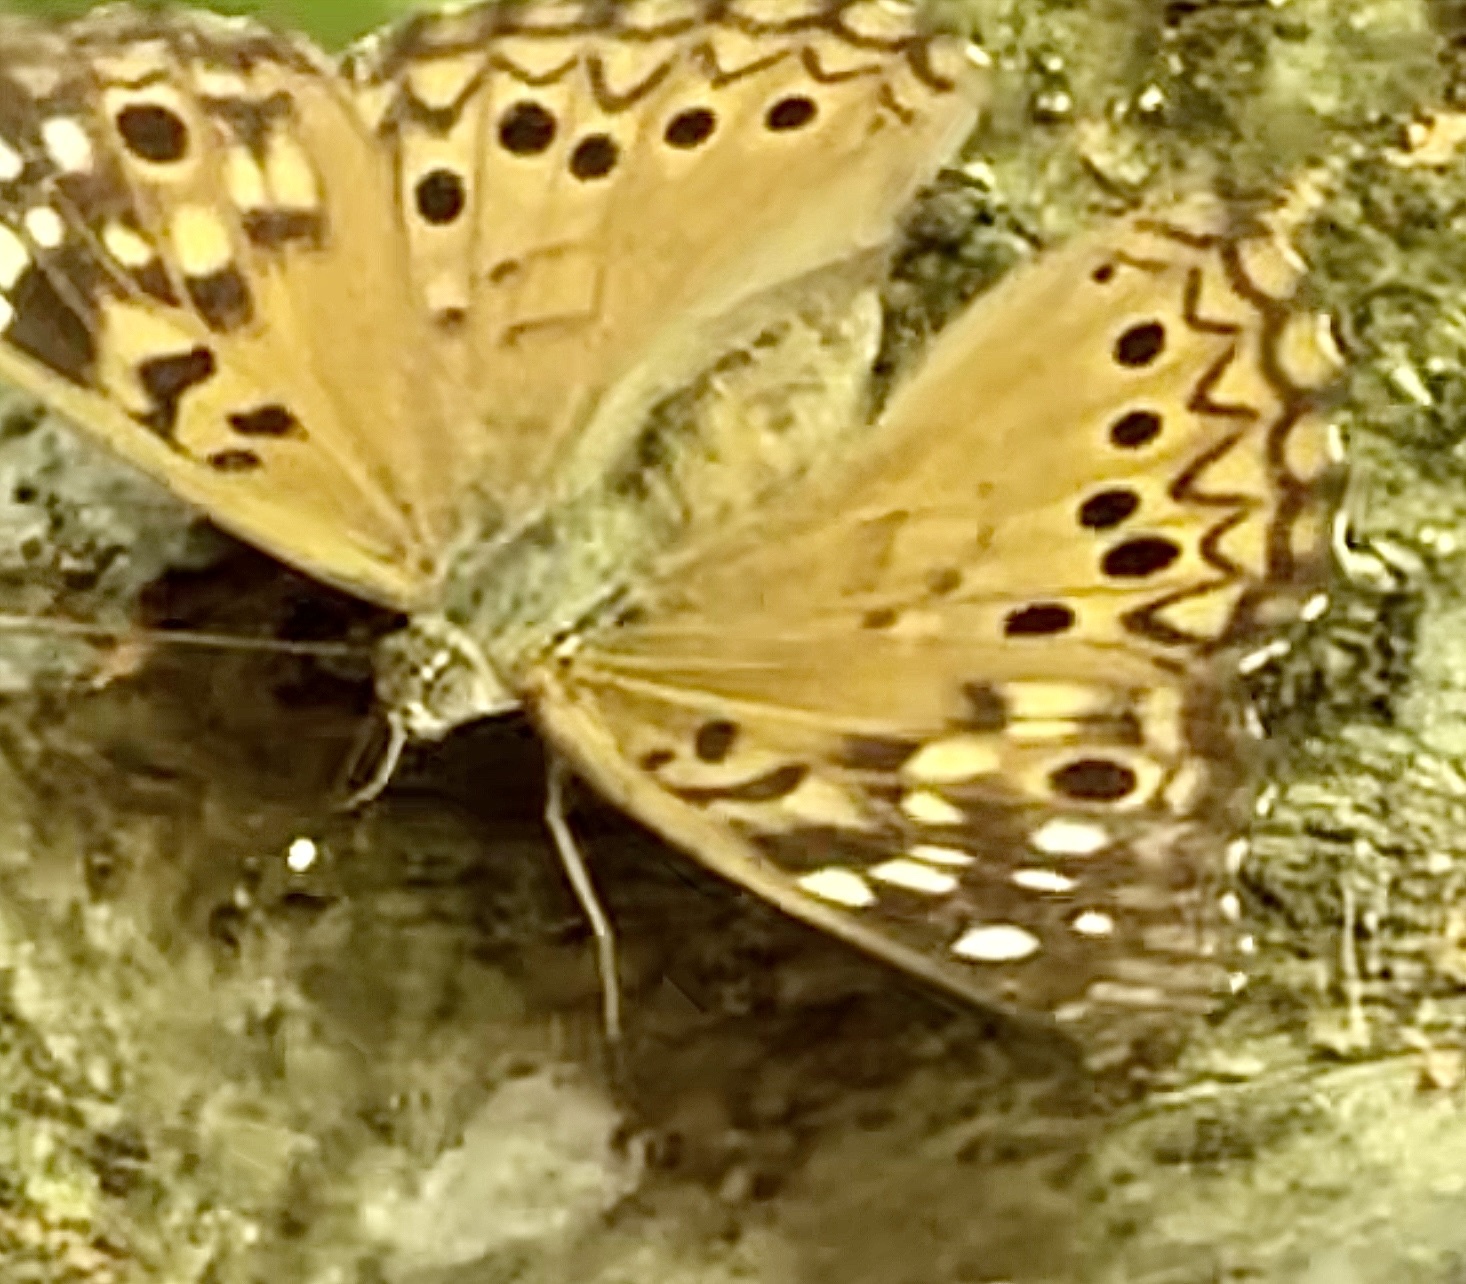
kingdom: Animalia
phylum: Arthropoda
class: Insecta
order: Lepidoptera
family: Nymphalidae
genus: Asterocampa
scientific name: Asterocampa celtis
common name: Hackberry emperor
